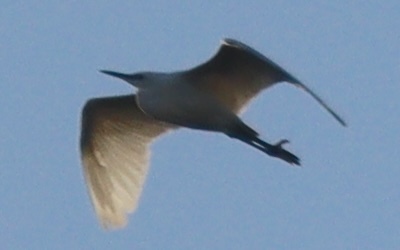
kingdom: Animalia
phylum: Chordata
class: Aves
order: Pelecaniformes
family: Ardeidae
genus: Egretta
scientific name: Egretta garzetta
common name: Little egret
